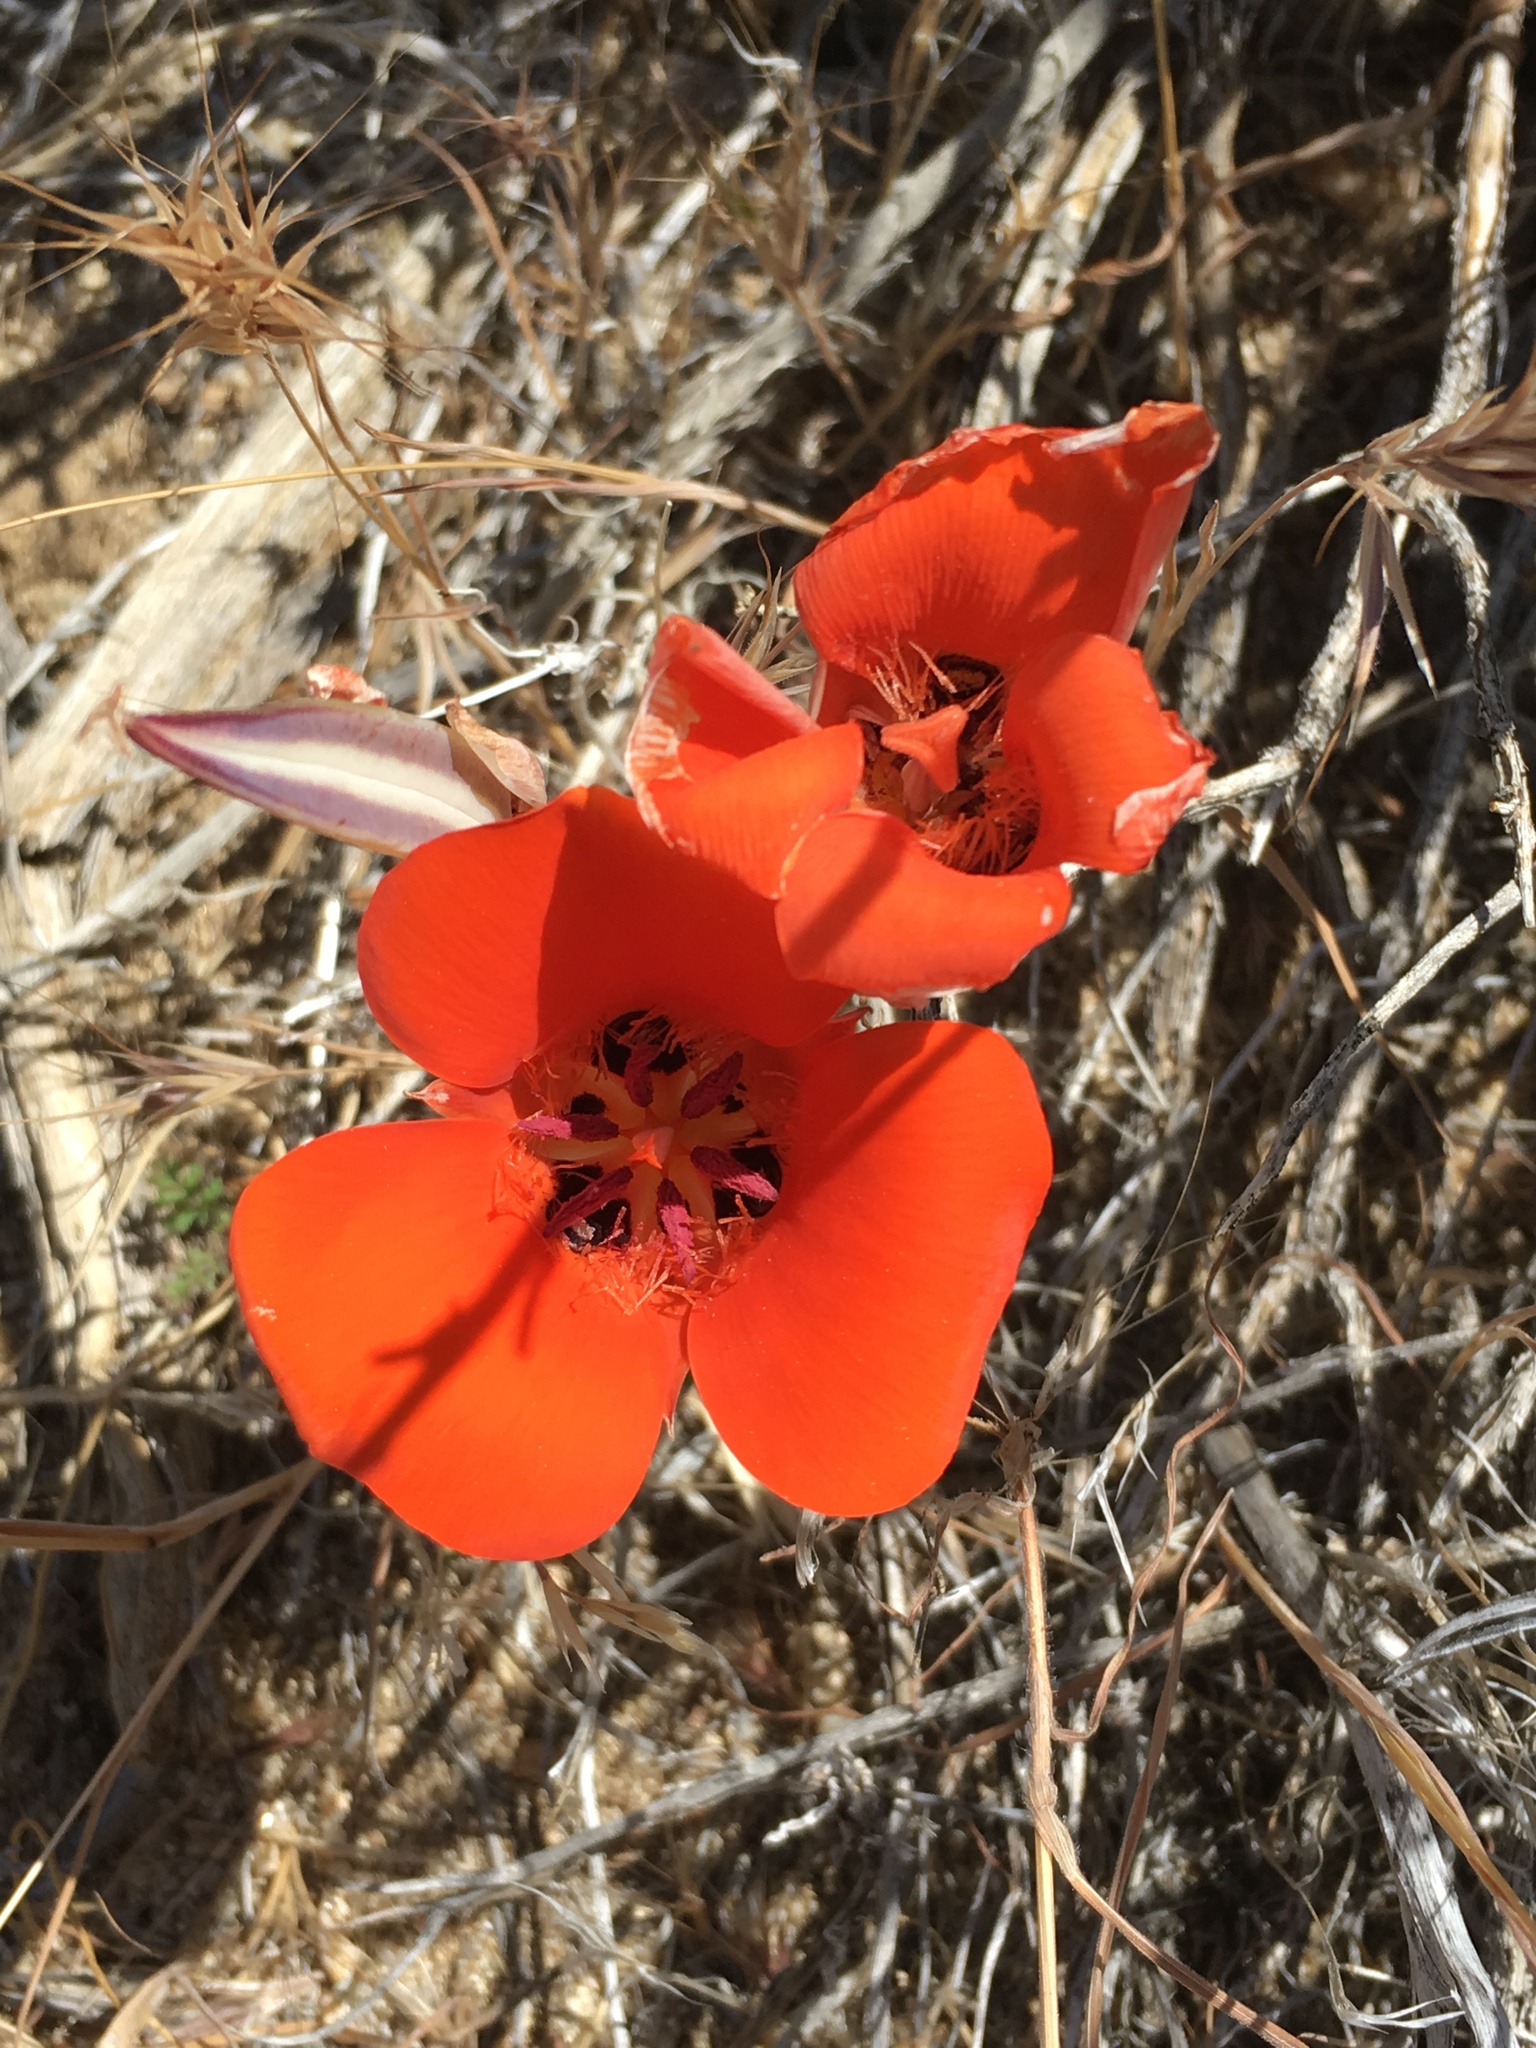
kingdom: Plantae
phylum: Tracheophyta
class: Liliopsida
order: Liliales
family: Liliaceae
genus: Calochortus
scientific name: Calochortus kennedyi
